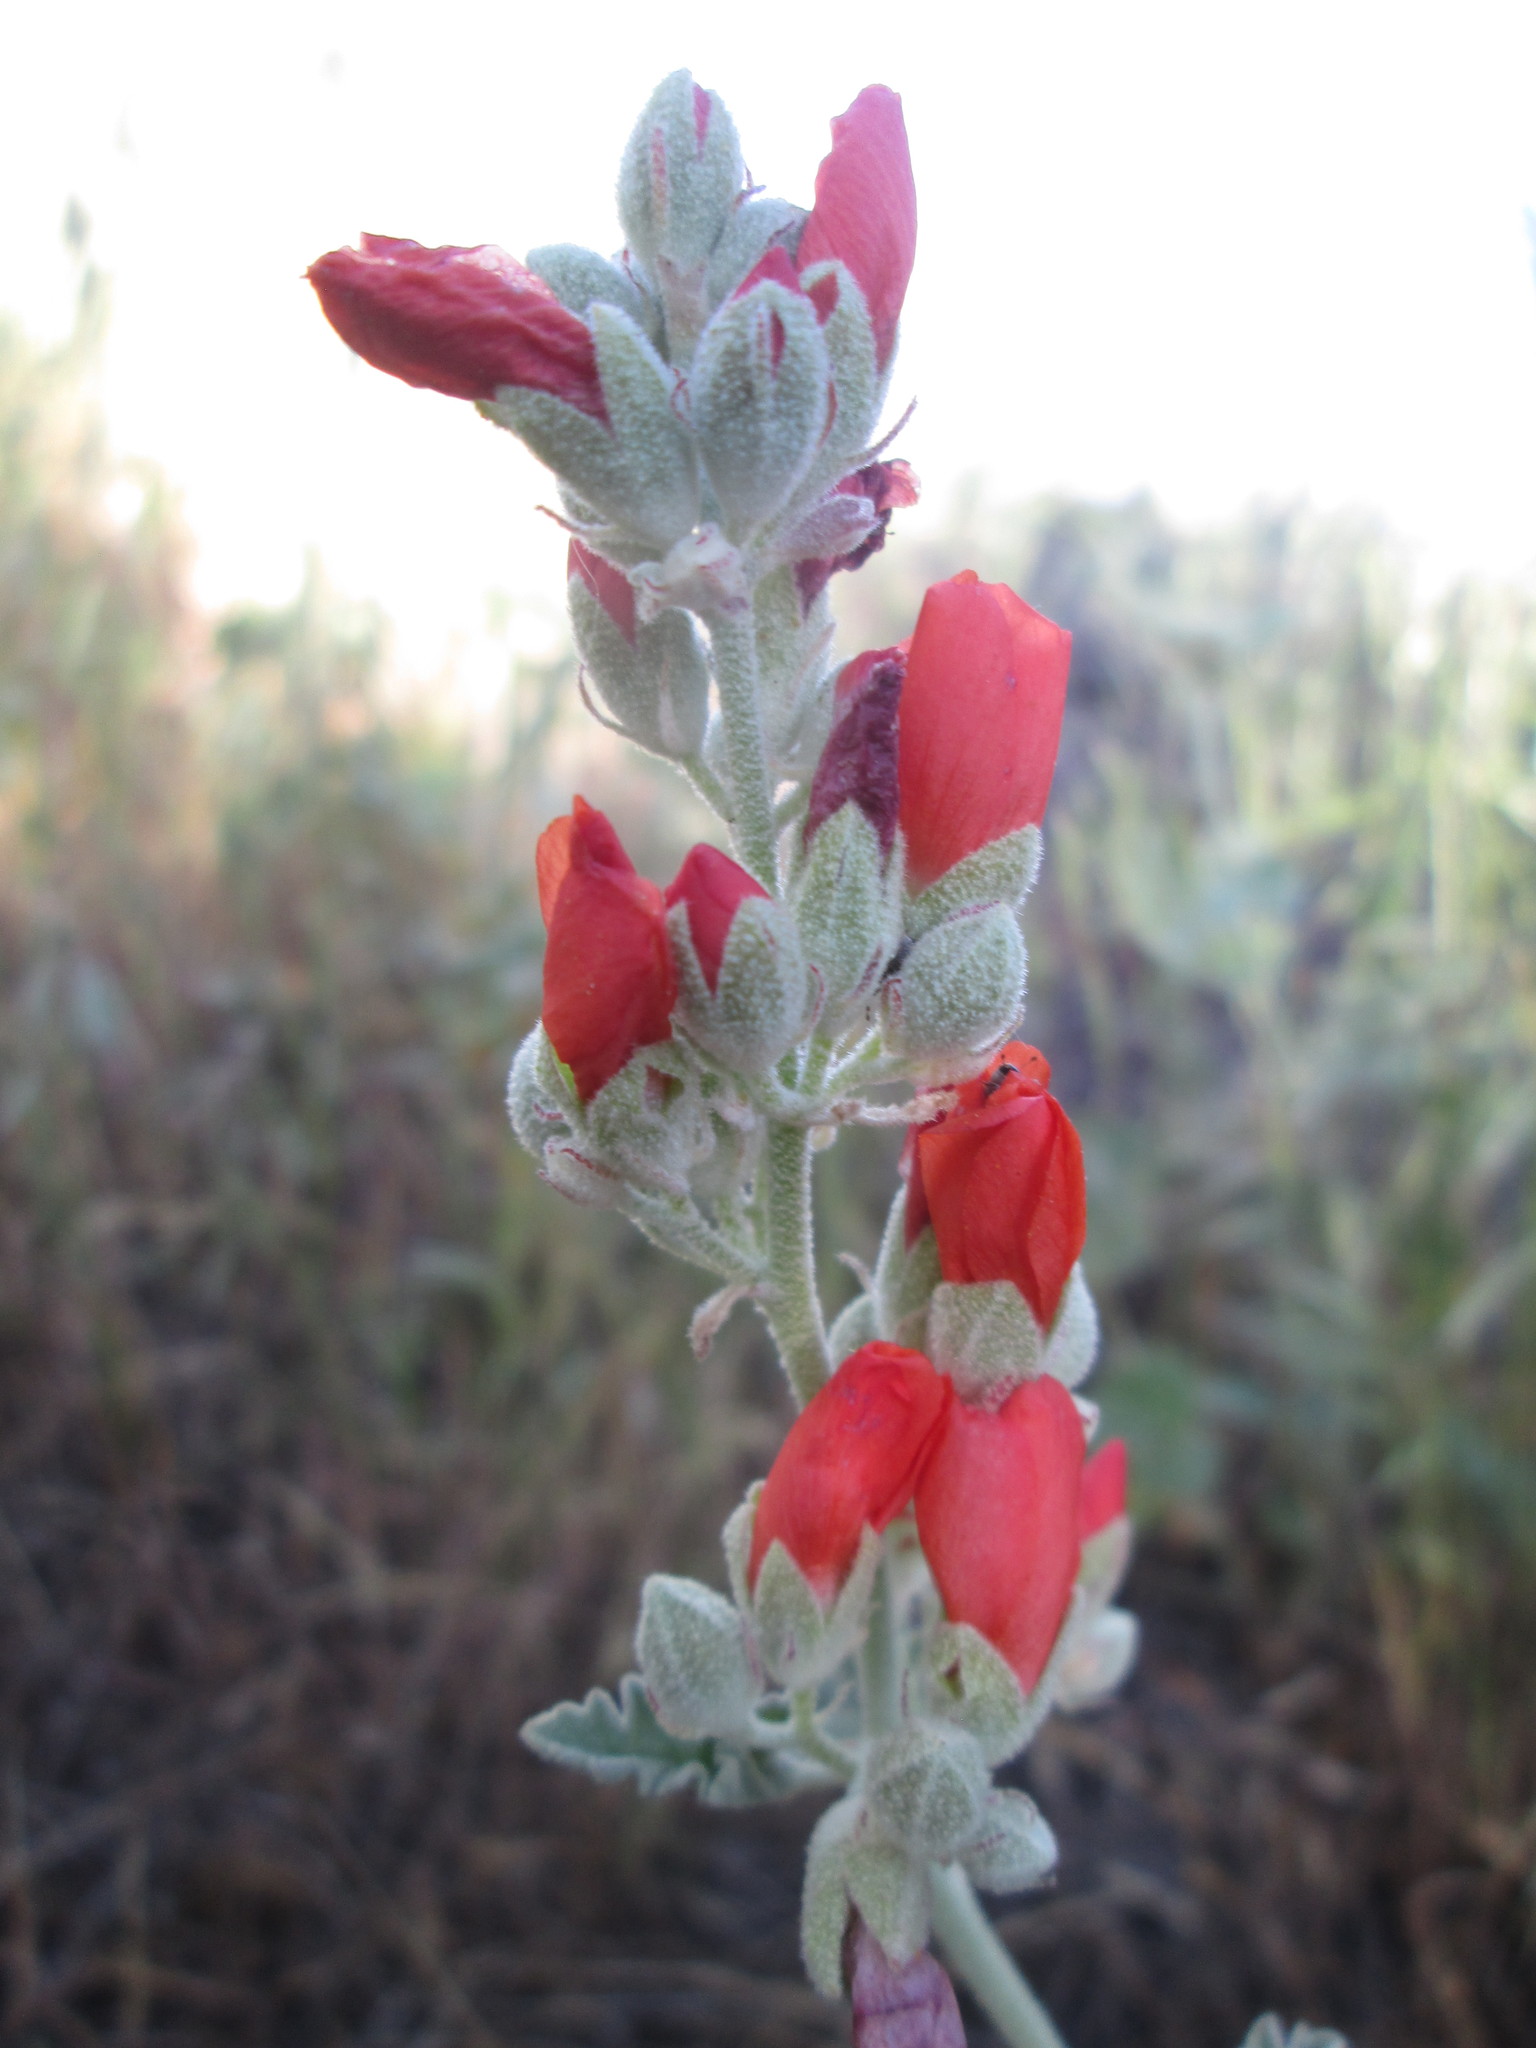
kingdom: Plantae
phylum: Tracheophyta
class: Magnoliopsida
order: Malvales
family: Malvaceae
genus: Sphaeralcea
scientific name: Sphaeralcea munroana
